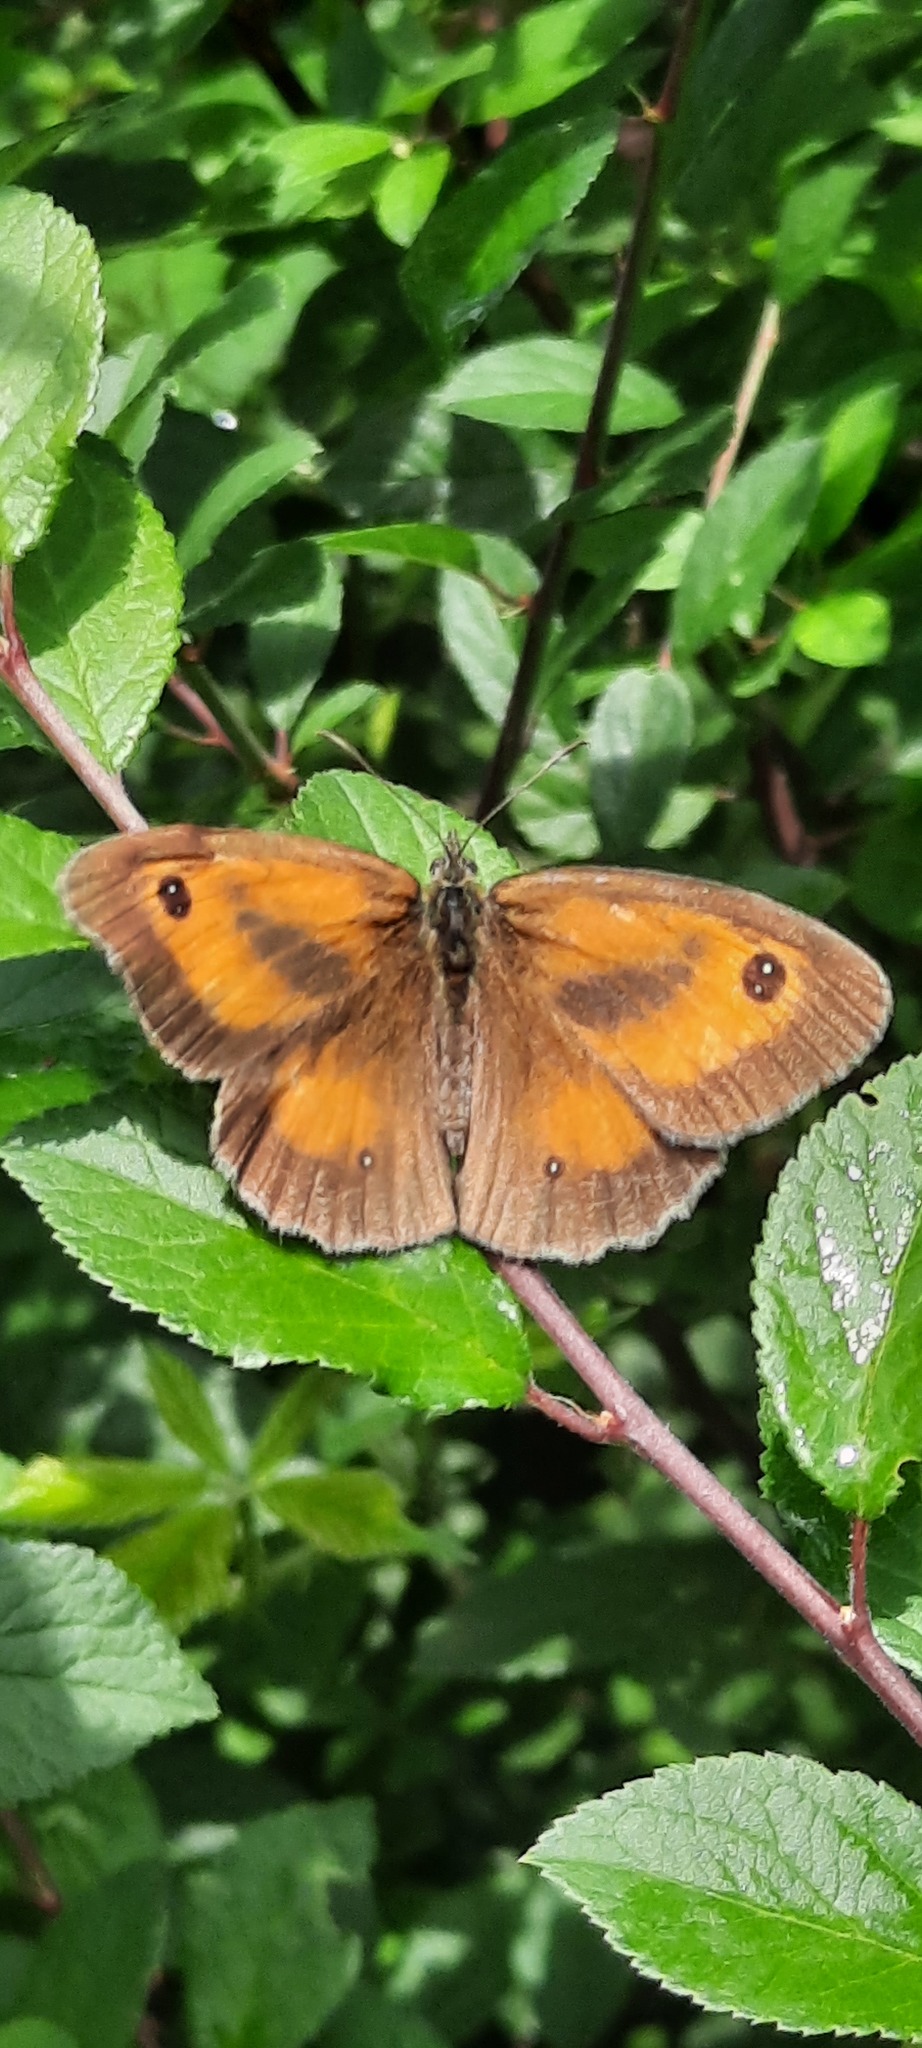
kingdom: Animalia
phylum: Arthropoda
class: Insecta
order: Lepidoptera
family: Nymphalidae
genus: Pyronia
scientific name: Pyronia tithonus
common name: Gatekeeper
